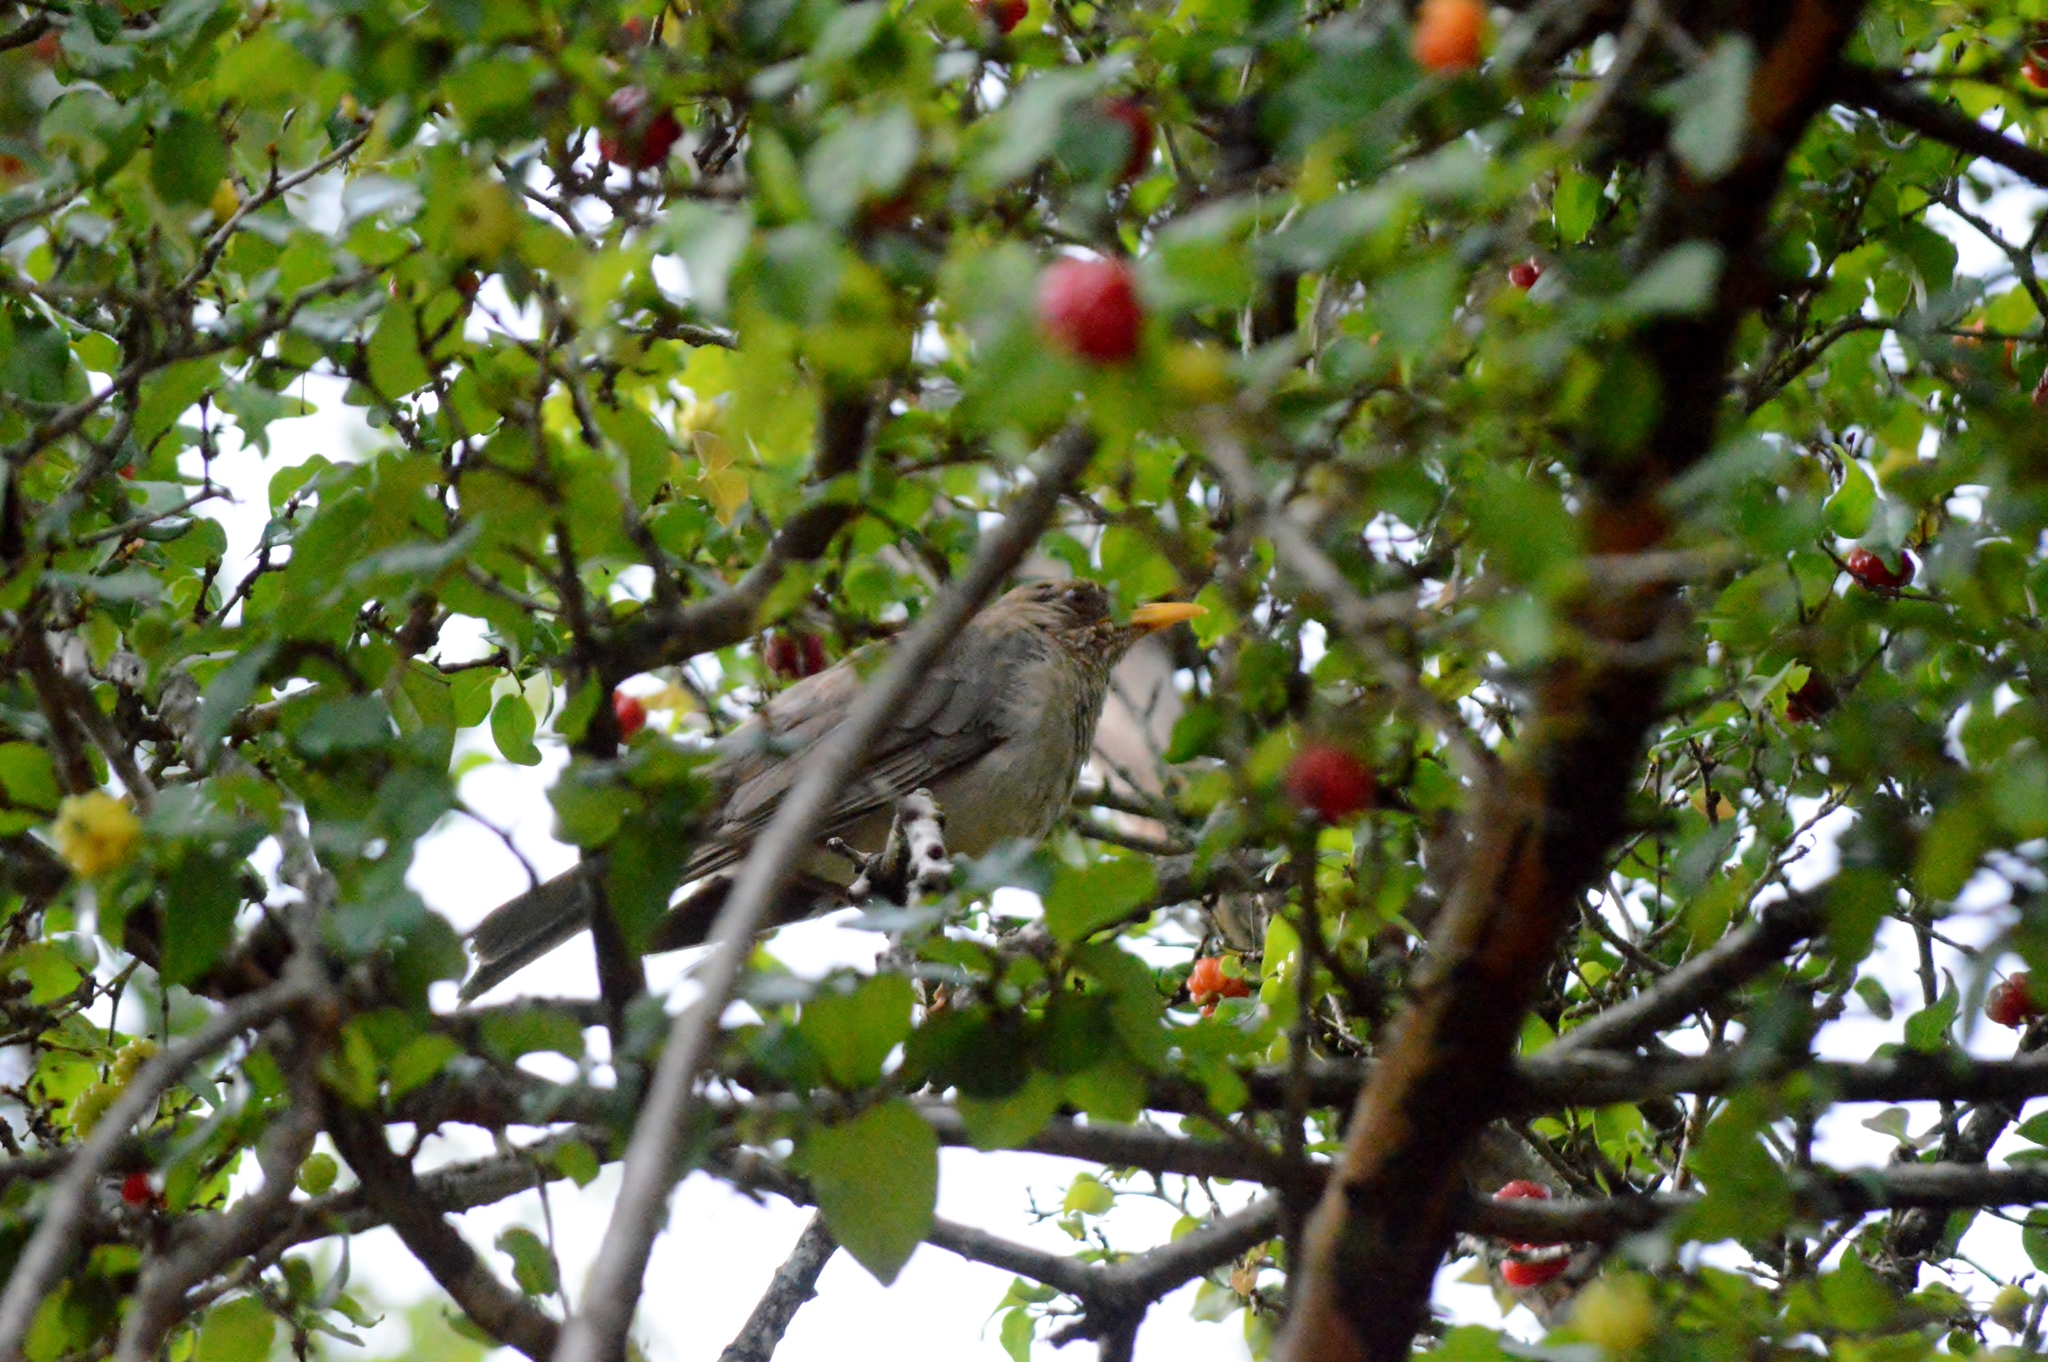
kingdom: Animalia
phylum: Chordata
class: Aves
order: Passeriformes
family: Turdidae
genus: Turdus
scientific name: Turdus amaurochalinus
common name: Creamy-bellied thrush
